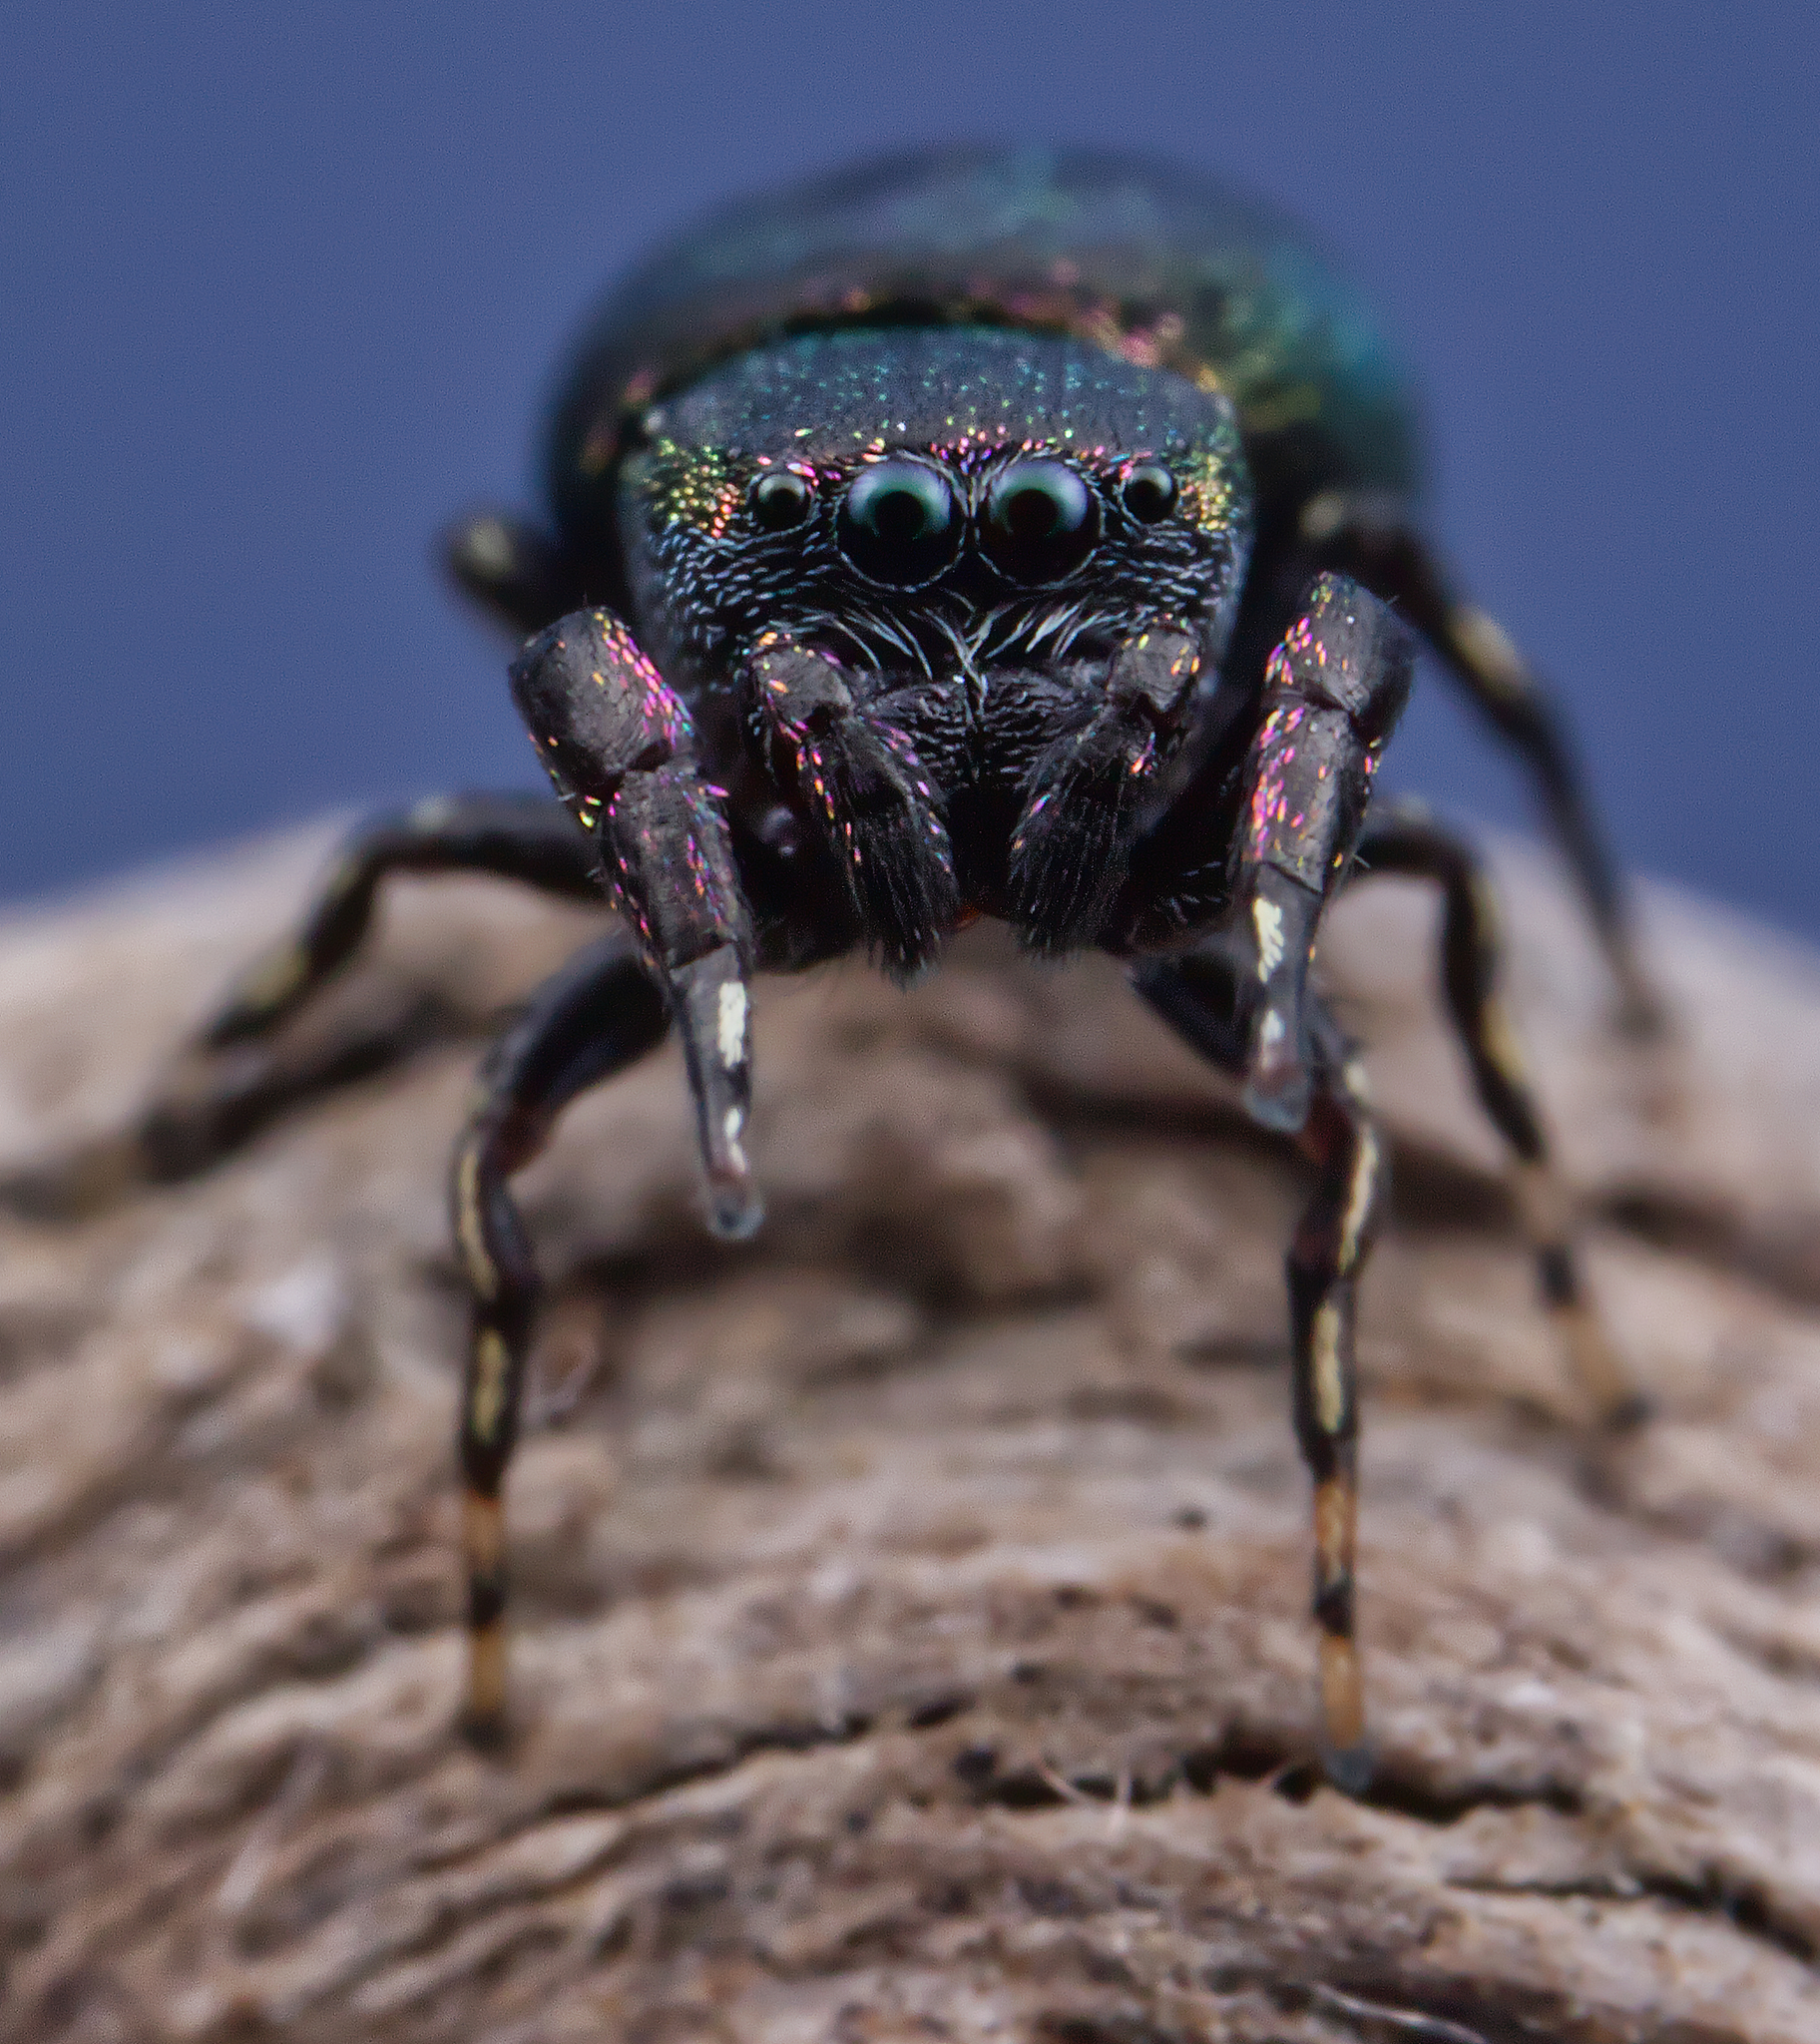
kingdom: Animalia
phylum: Arthropoda
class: Arachnida
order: Araneae
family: Salticidae
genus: Sassacus
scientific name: Sassacus cyaneus
